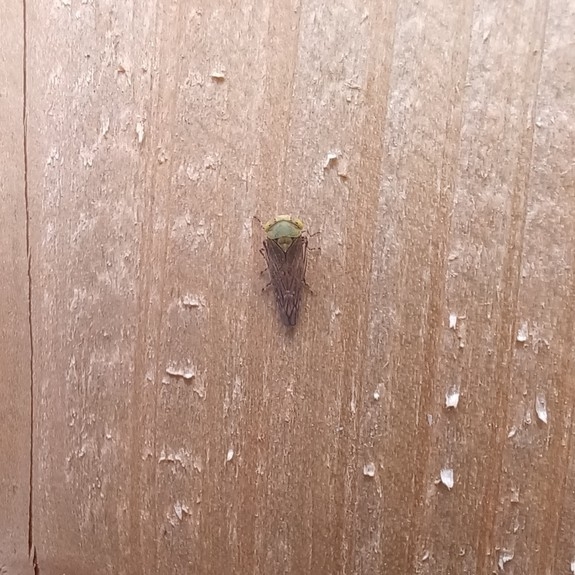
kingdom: Animalia
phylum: Arthropoda
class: Insecta
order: Hemiptera
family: Cicadellidae
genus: Acericerus
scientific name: Acericerus ribauti
